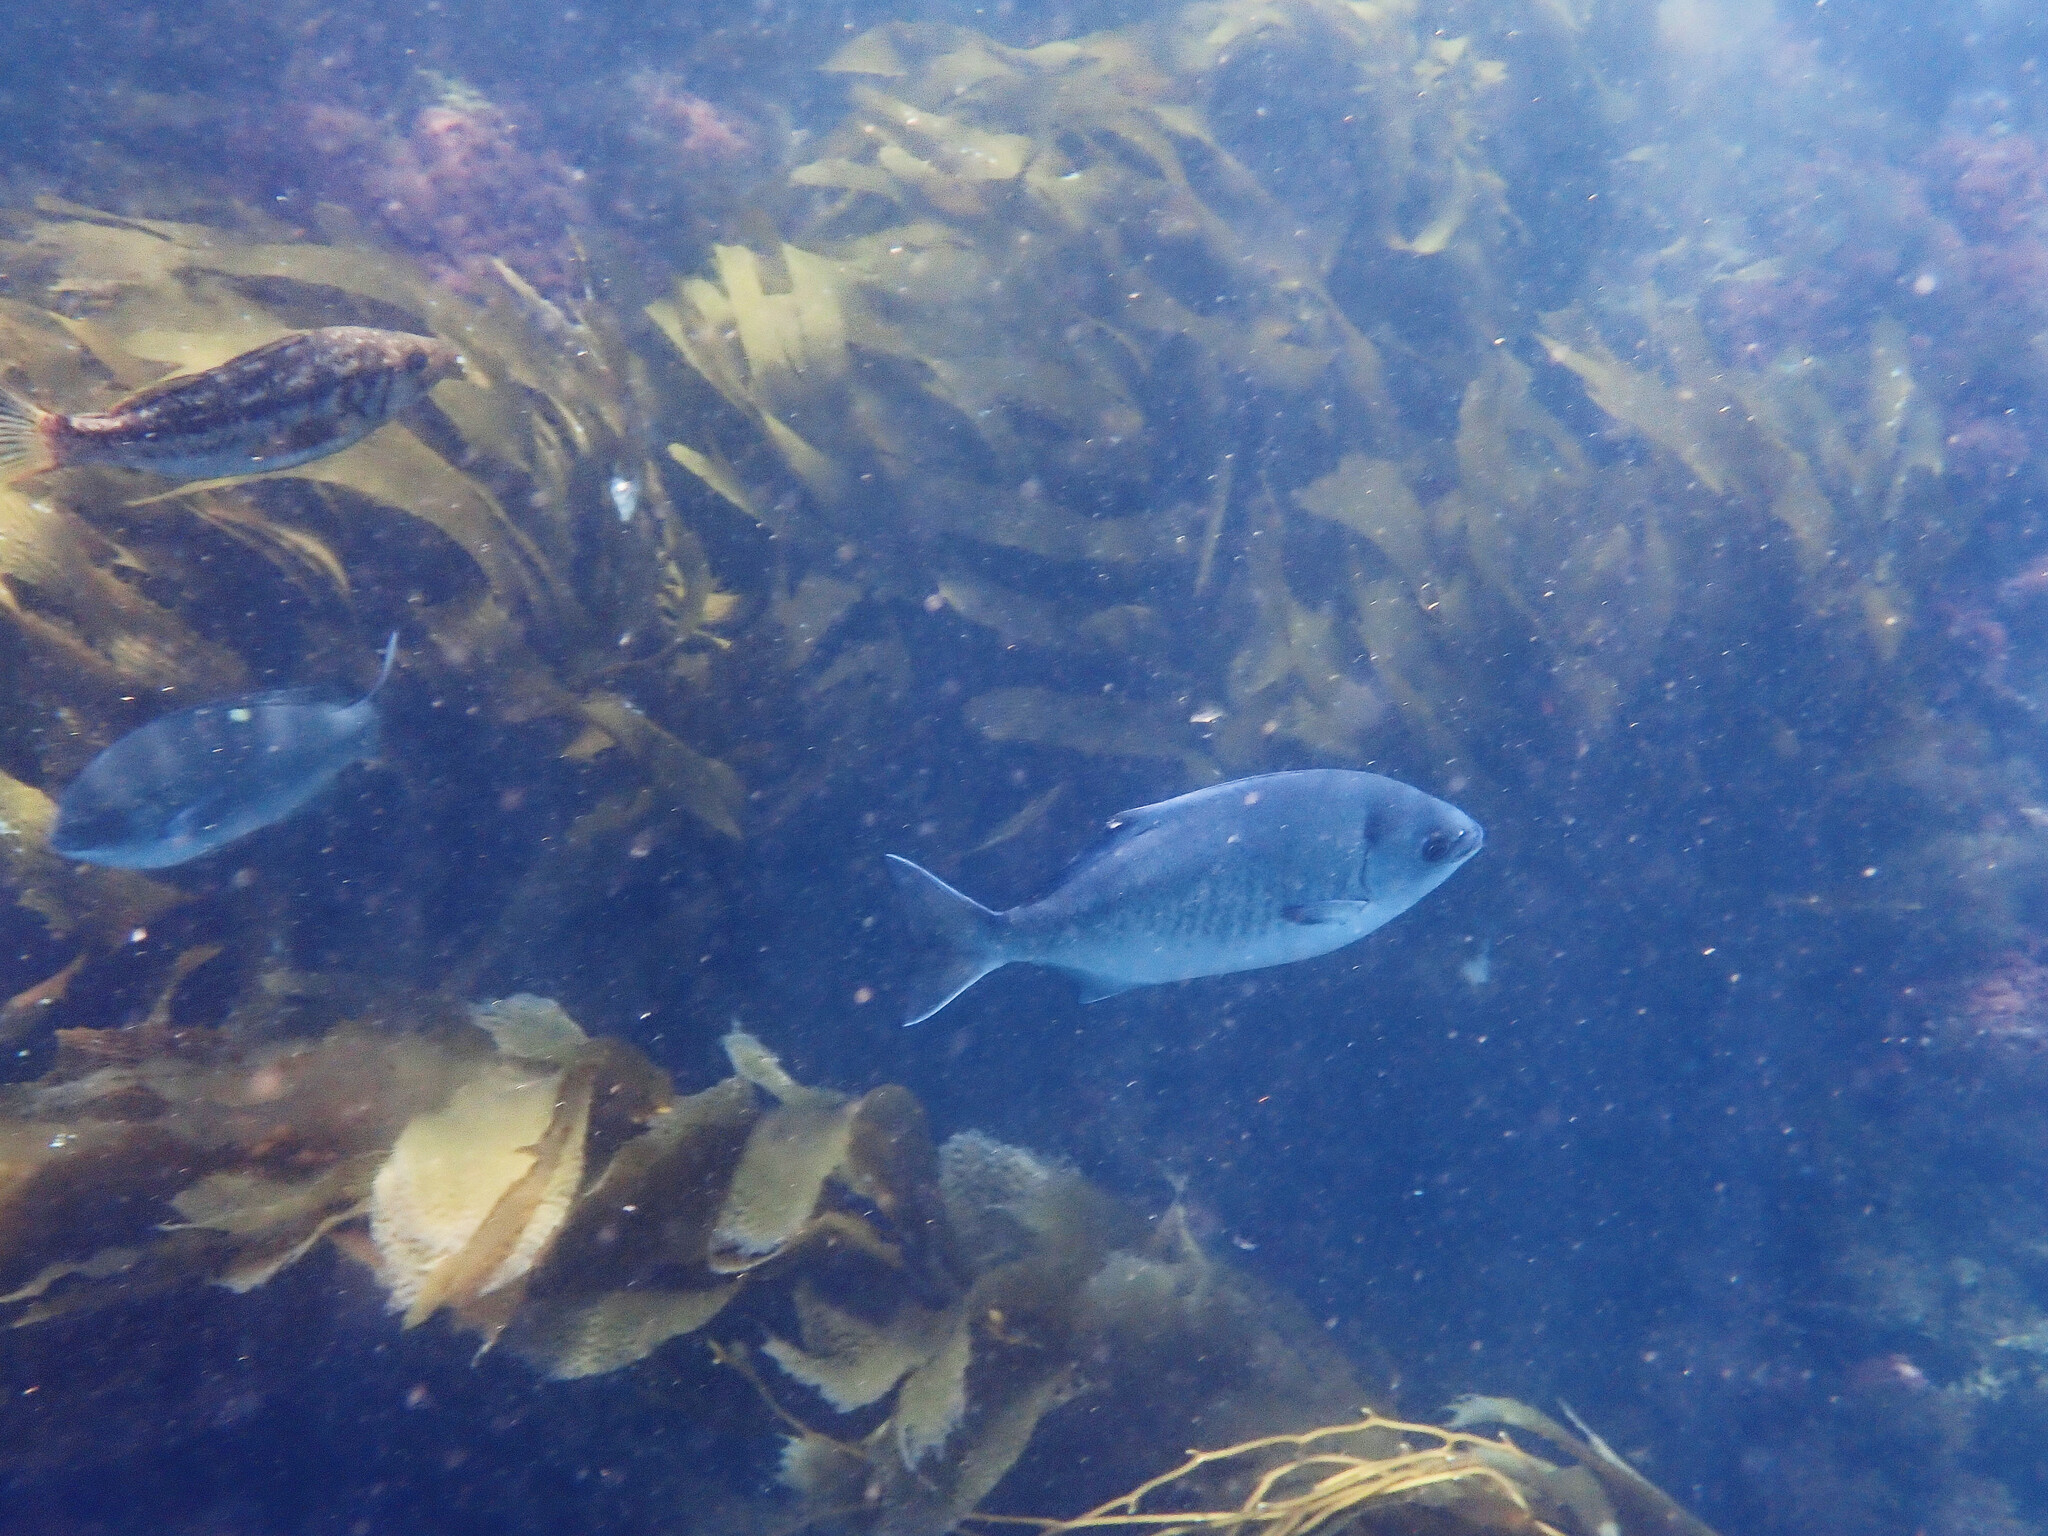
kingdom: Animalia
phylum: Chordata
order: Perciformes
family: Kyphosidae
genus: Medialuna
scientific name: Medialuna californiensis
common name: Halfmoon
